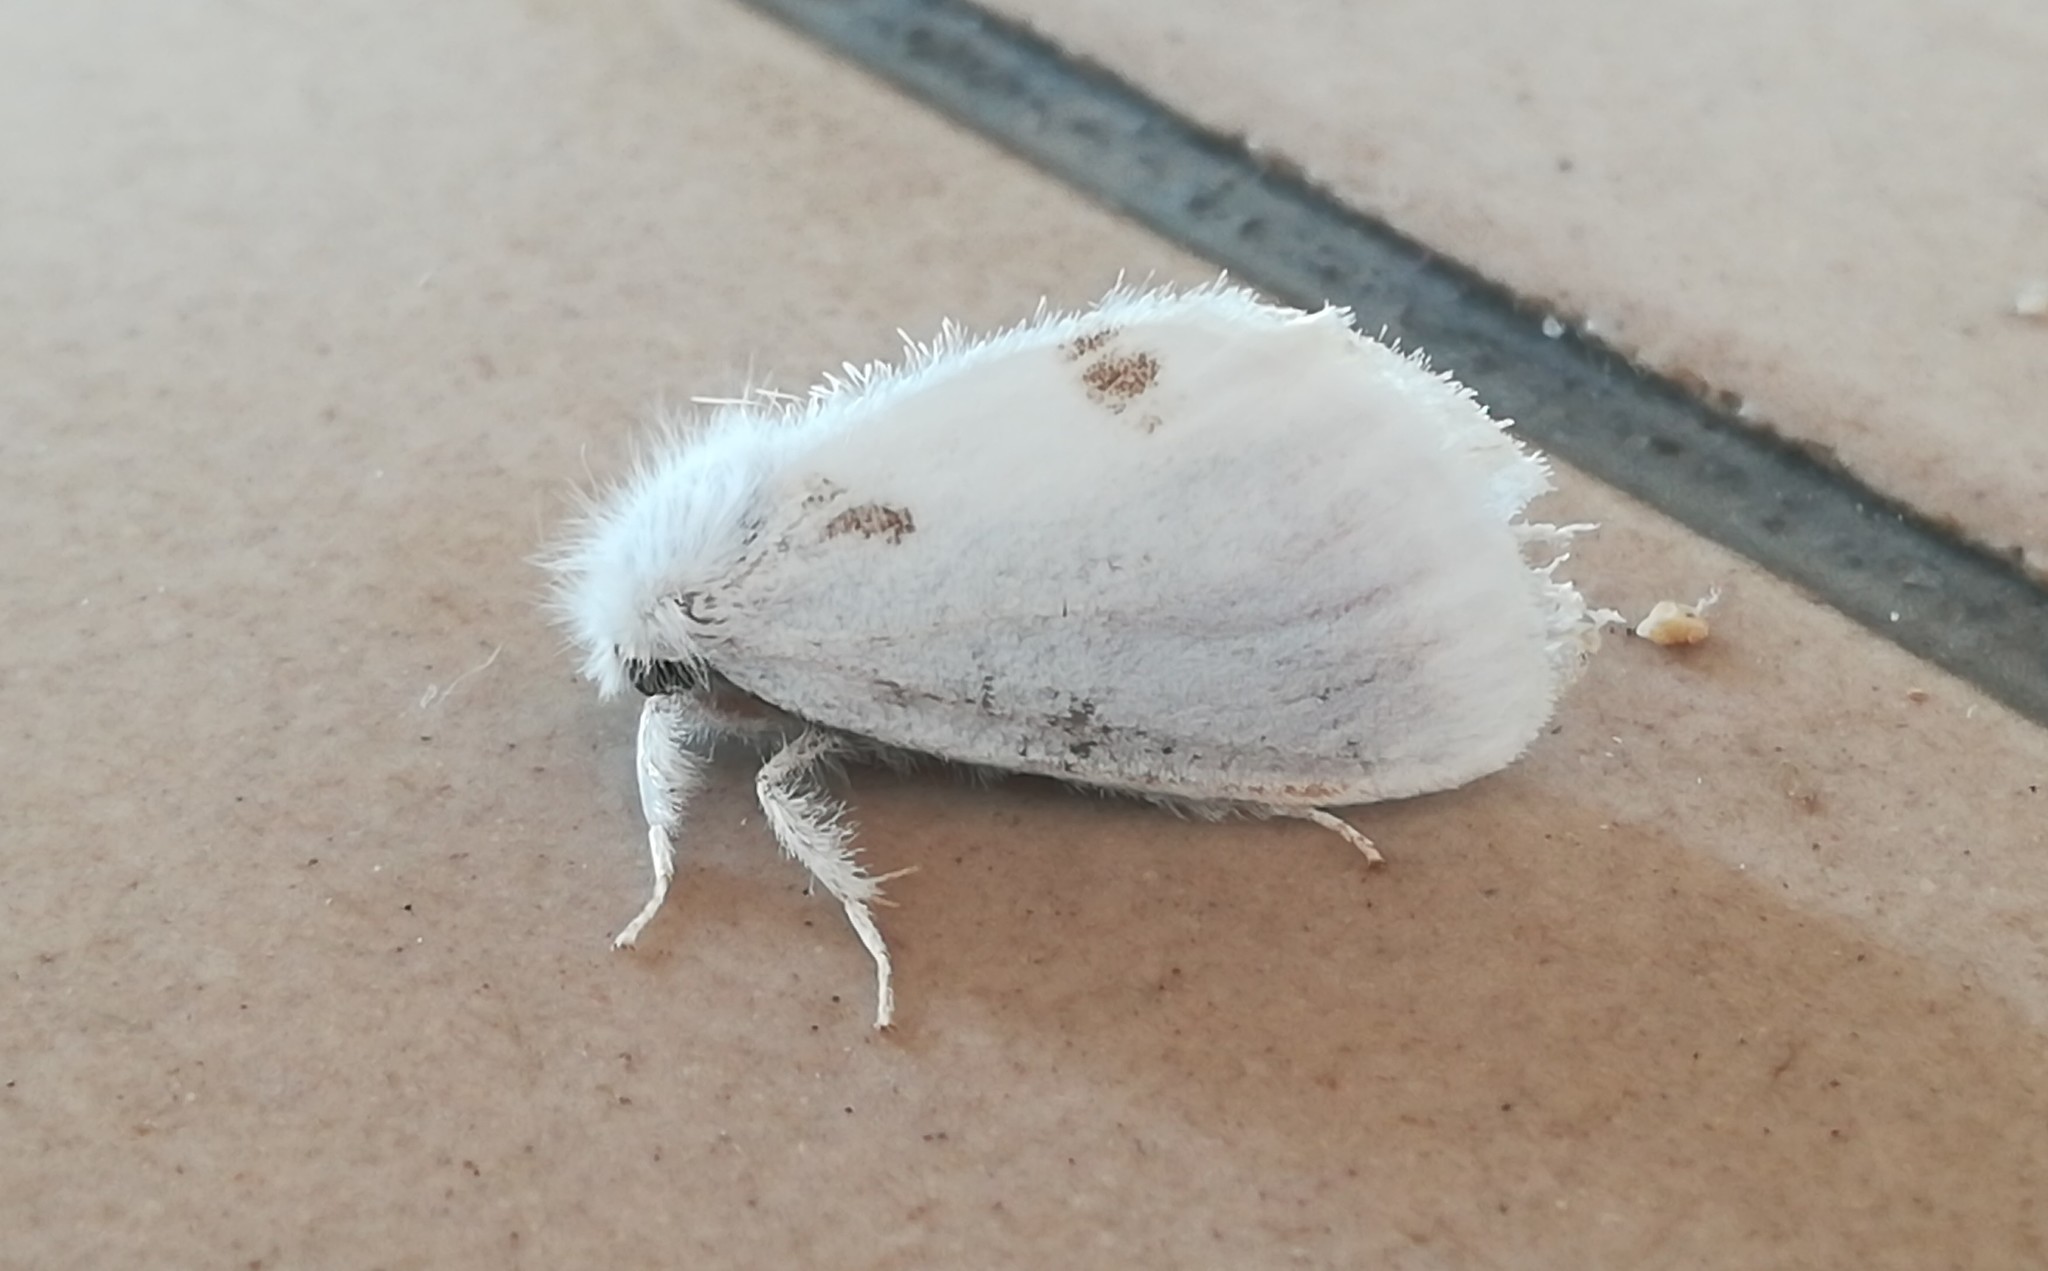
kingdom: Animalia
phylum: Arthropoda
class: Insecta
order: Lepidoptera
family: Erebidae
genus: Sphrageidus
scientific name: Sphrageidus similis
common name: Yellow-tail
